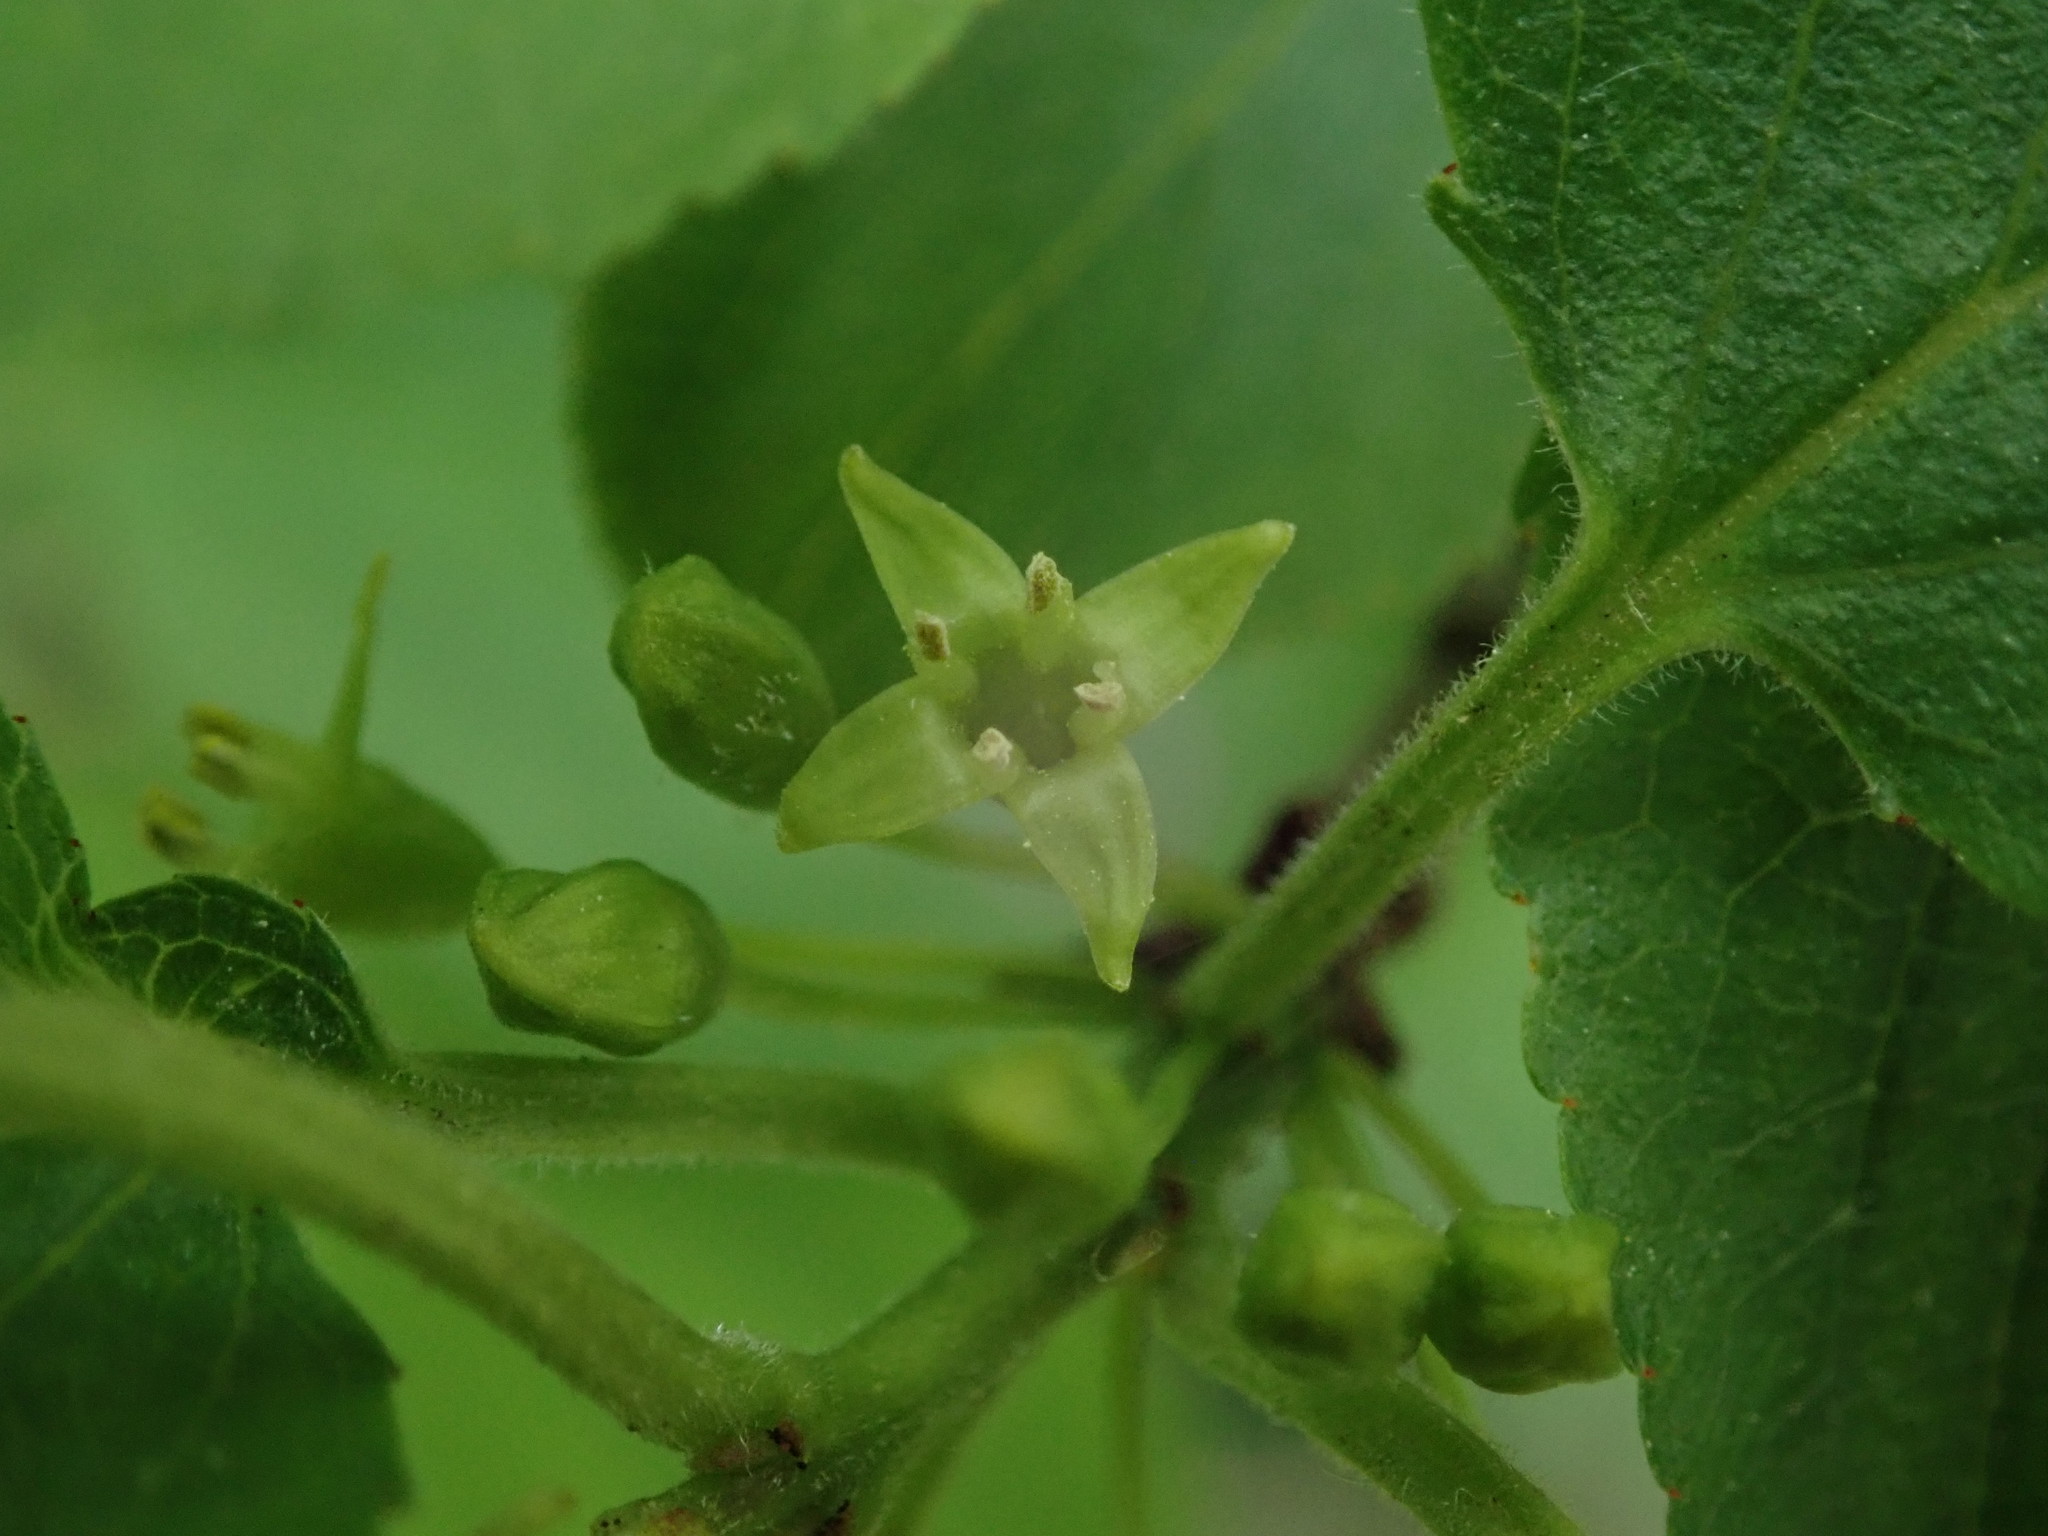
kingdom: Plantae
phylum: Tracheophyta
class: Magnoliopsida
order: Rosales
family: Rhamnaceae
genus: Rhamnus
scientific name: Rhamnus cathartica
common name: Common buckthorn
